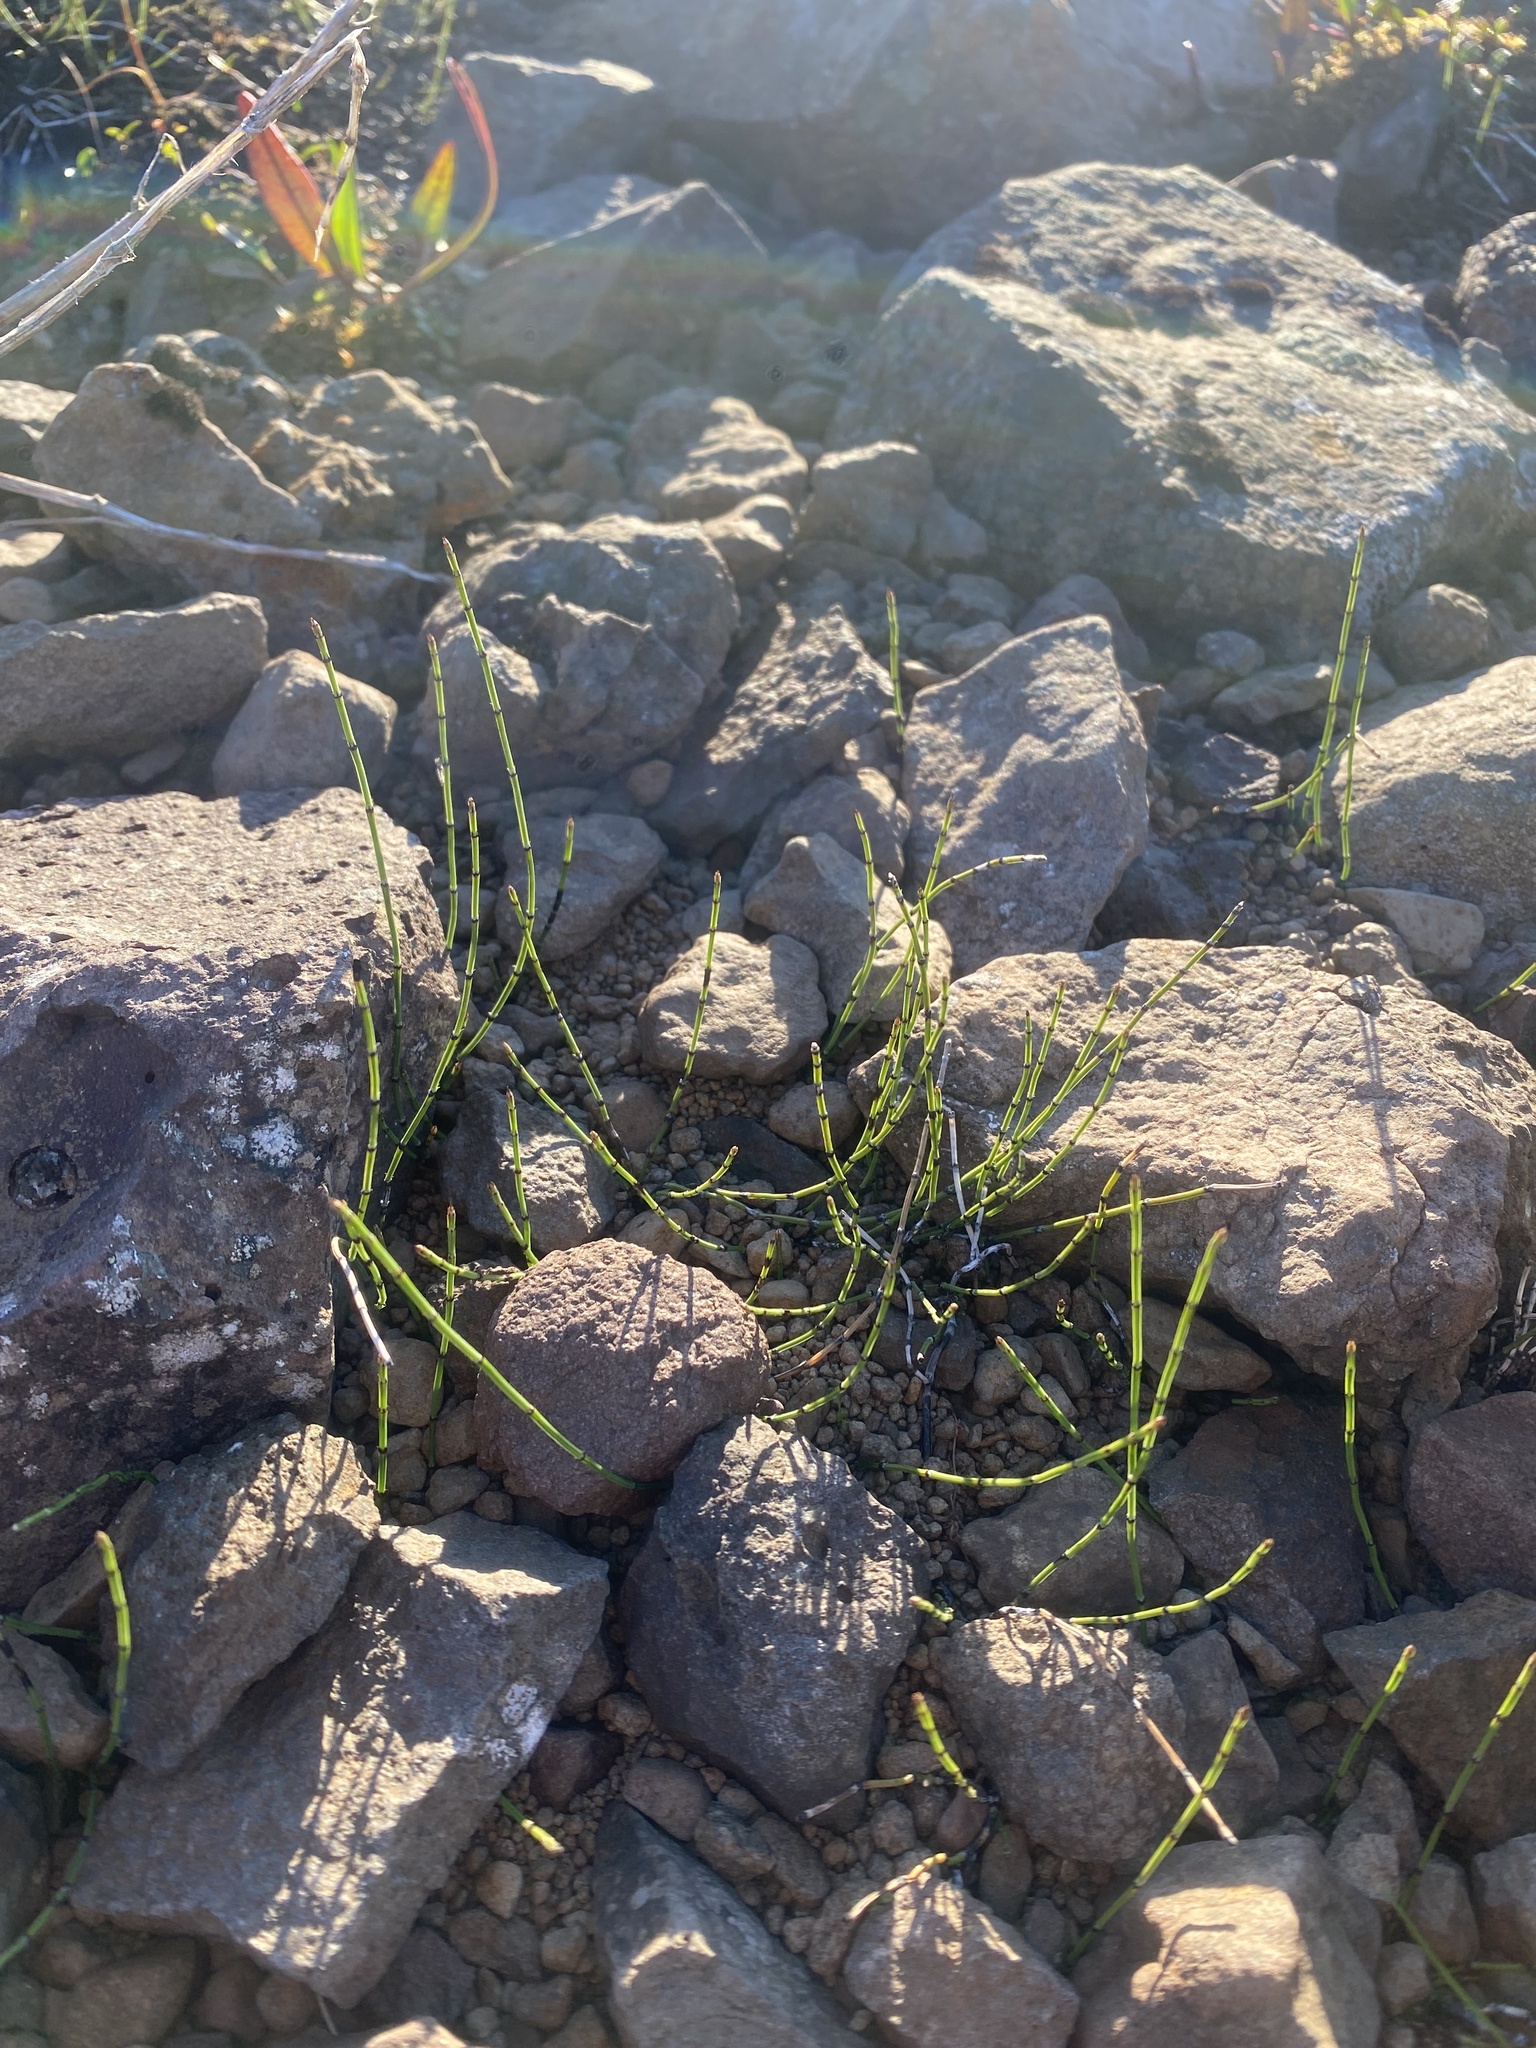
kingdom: Plantae
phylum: Tracheophyta
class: Polypodiopsida
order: Equisetales
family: Equisetaceae
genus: Equisetum
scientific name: Equisetum variegatum
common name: Variegated horsetail
